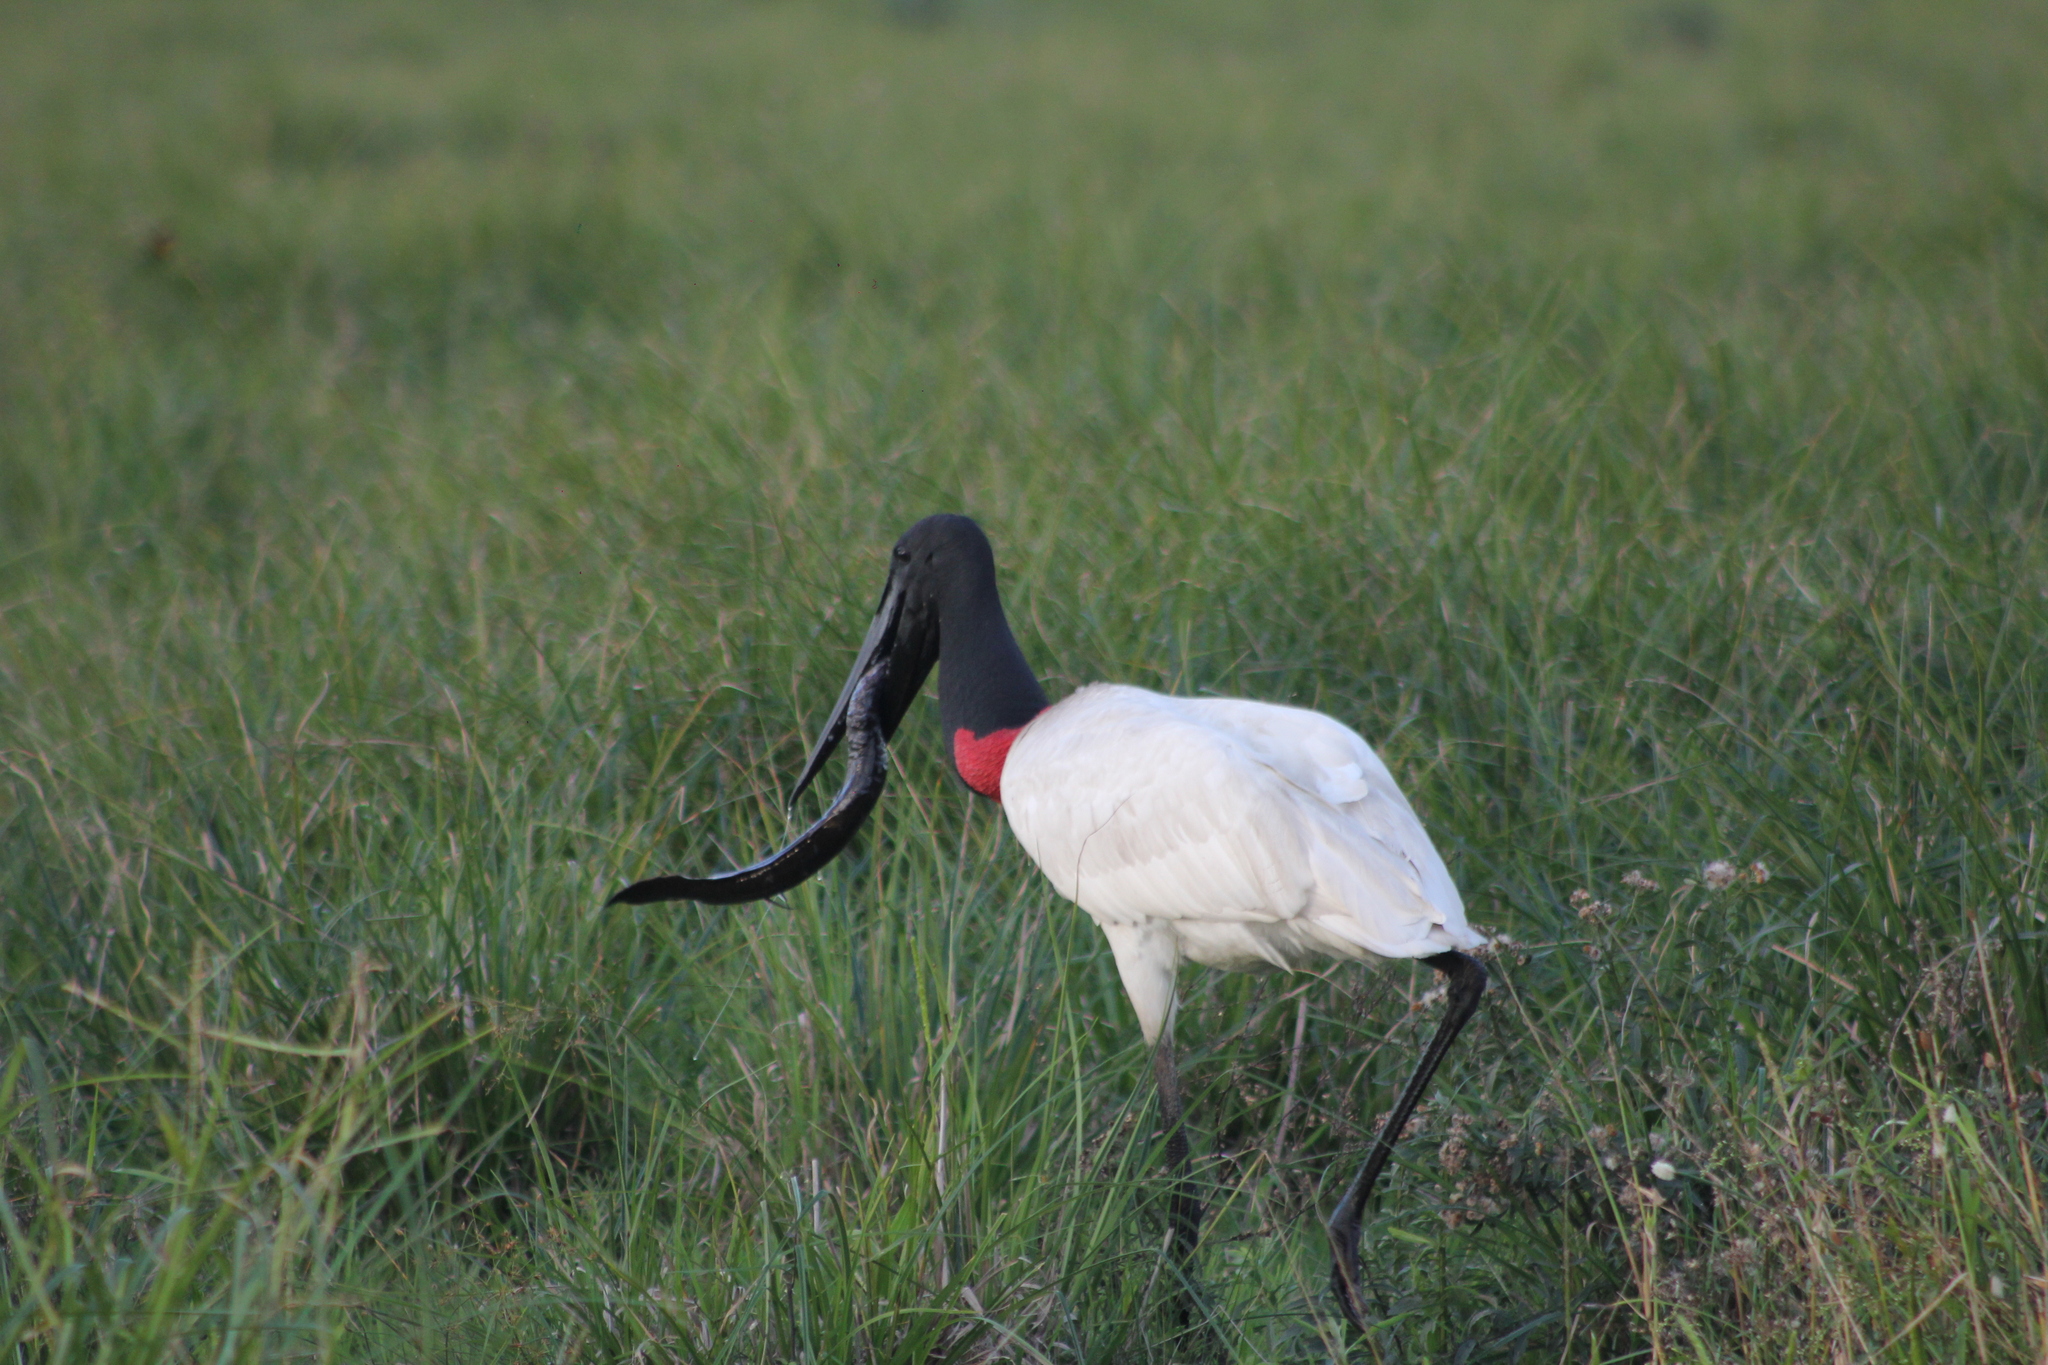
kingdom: Animalia
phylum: Chordata
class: Dipneusti
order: Ceratodontiformes
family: Lepidosirenidae
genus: Lepidosiren
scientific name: Lepidosiren paradoxa
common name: South american lungfish
